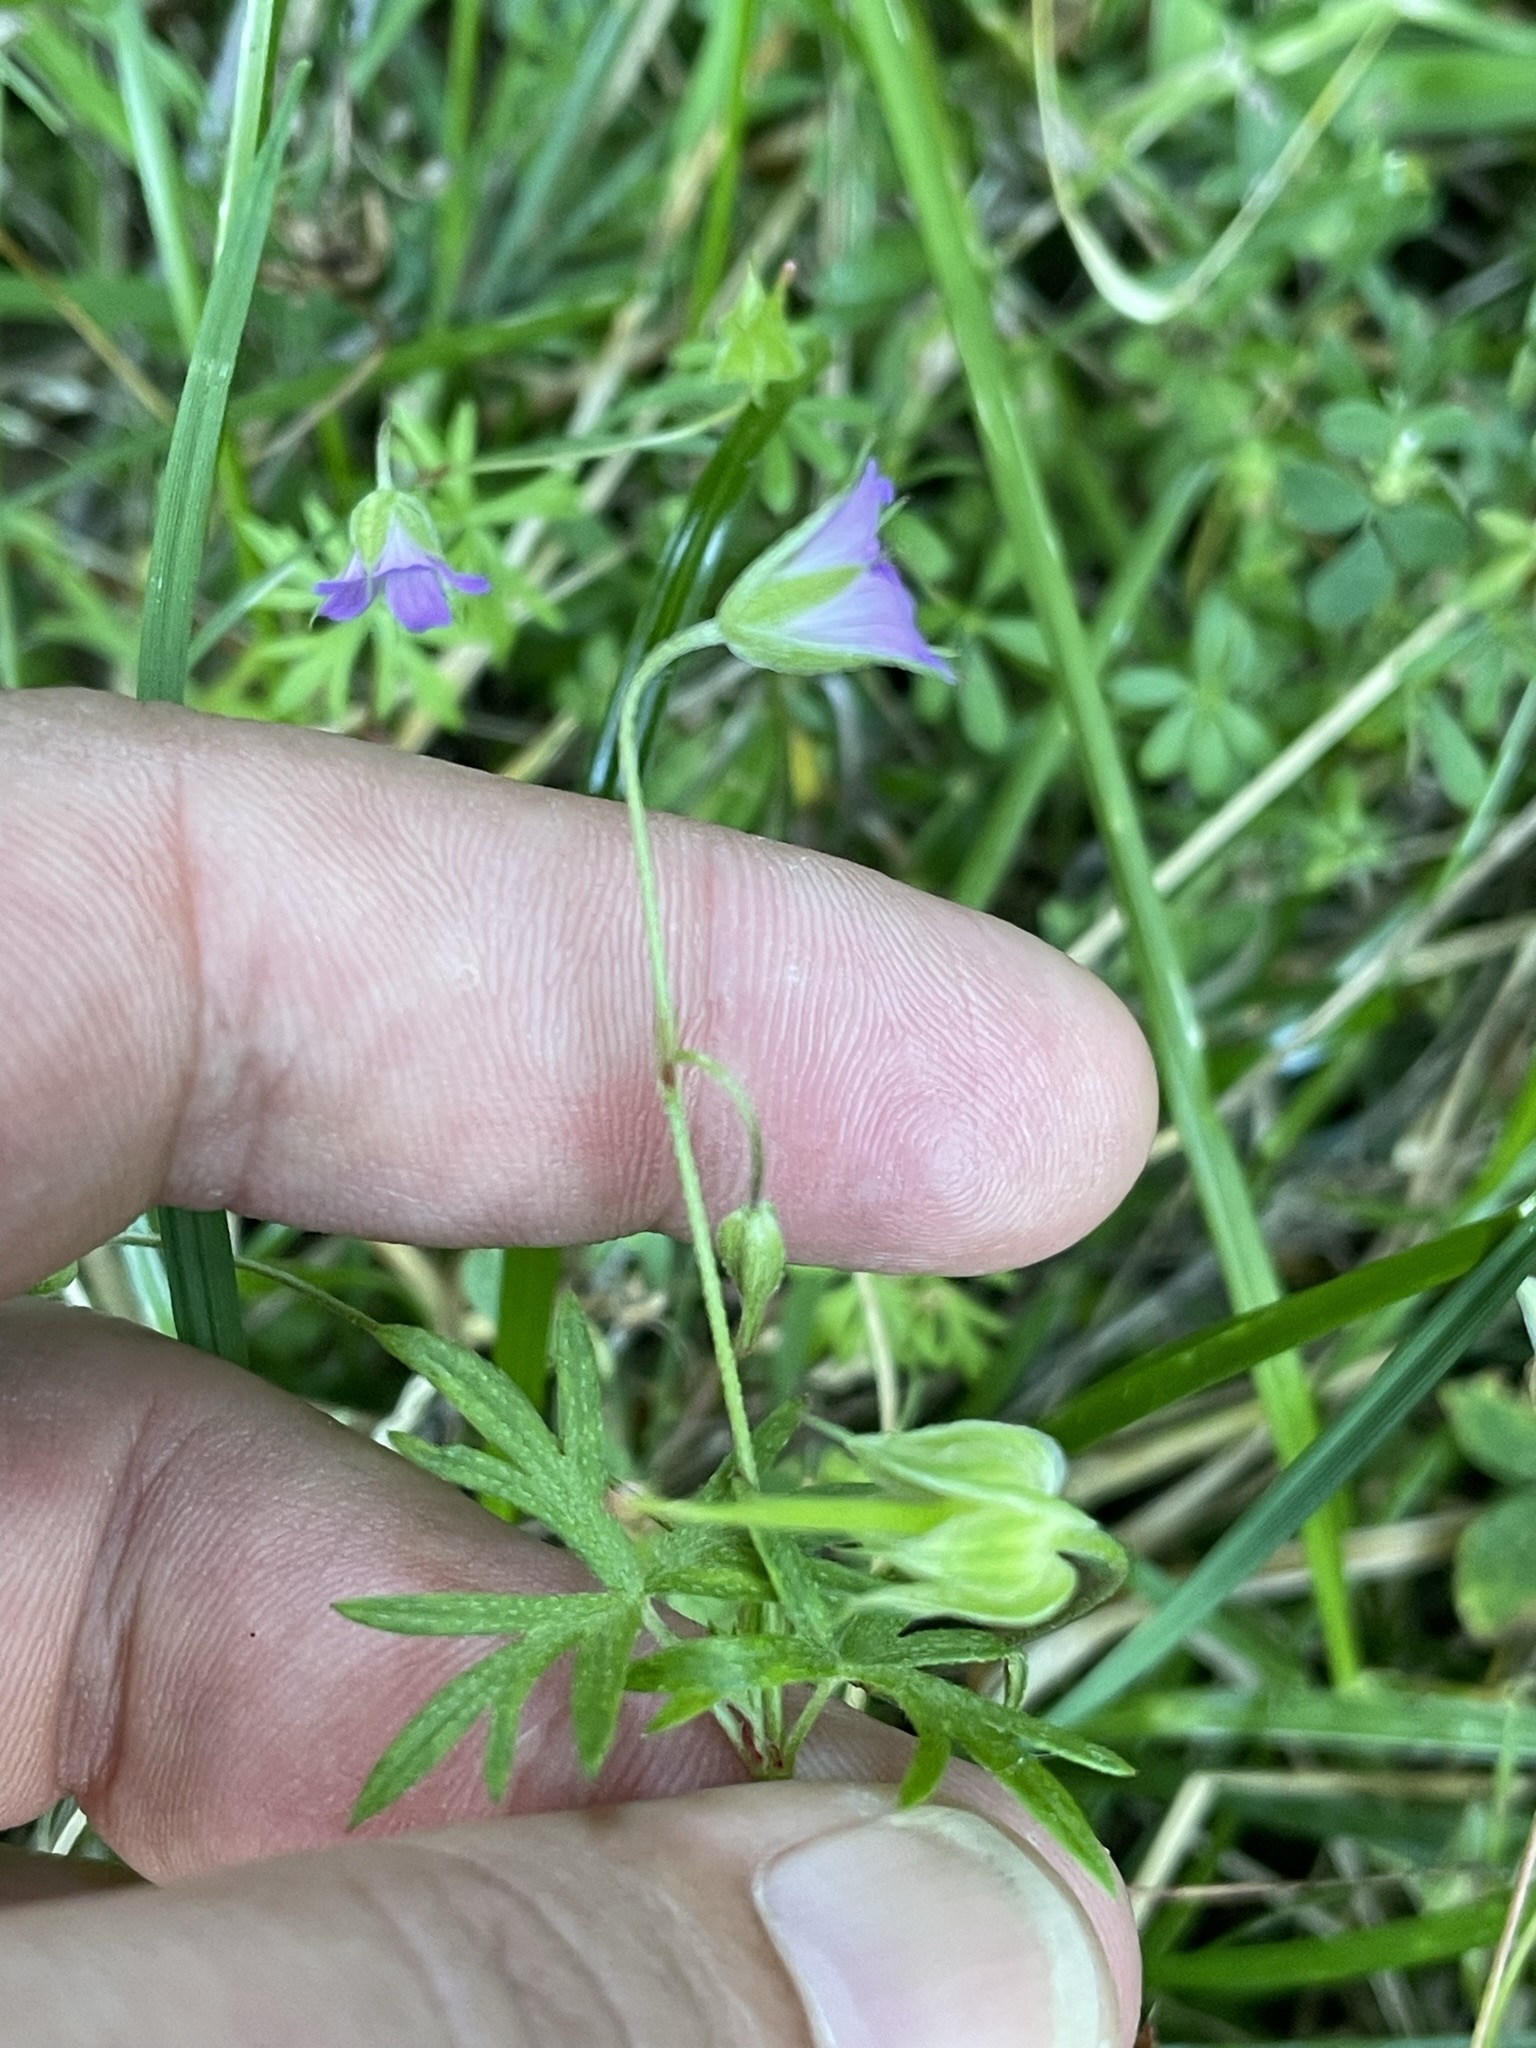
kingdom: Plantae
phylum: Tracheophyta
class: Magnoliopsida
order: Geraniales
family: Geraniaceae
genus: Geranium
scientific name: Geranium columbinum
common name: Long-stalked crane's-bill
